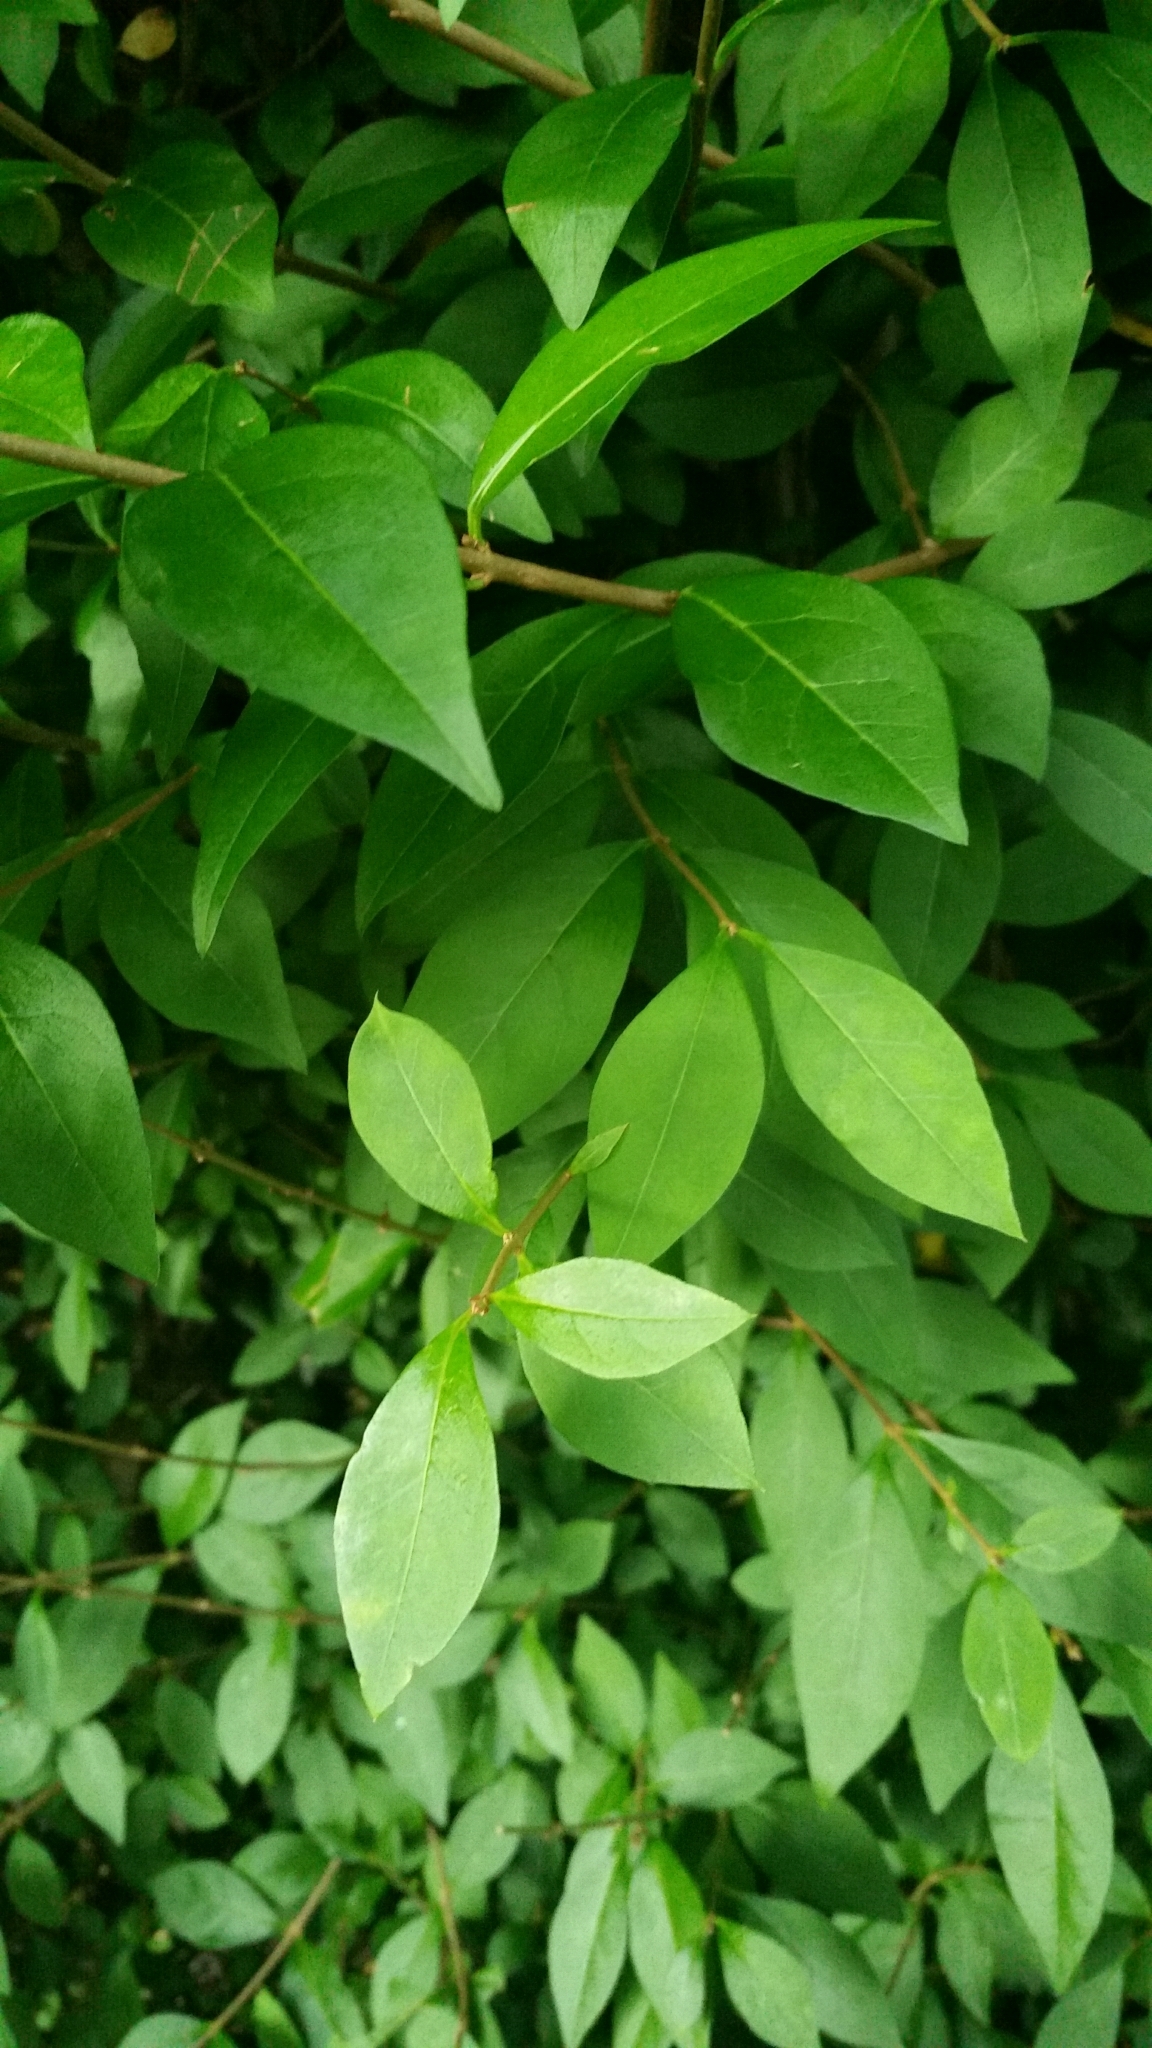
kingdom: Plantae
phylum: Tracheophyta
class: Magnoliopsida
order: Lamiales
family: Oleaceae
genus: Ligustrum
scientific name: Ligustrum ovalifolium
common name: California privet
